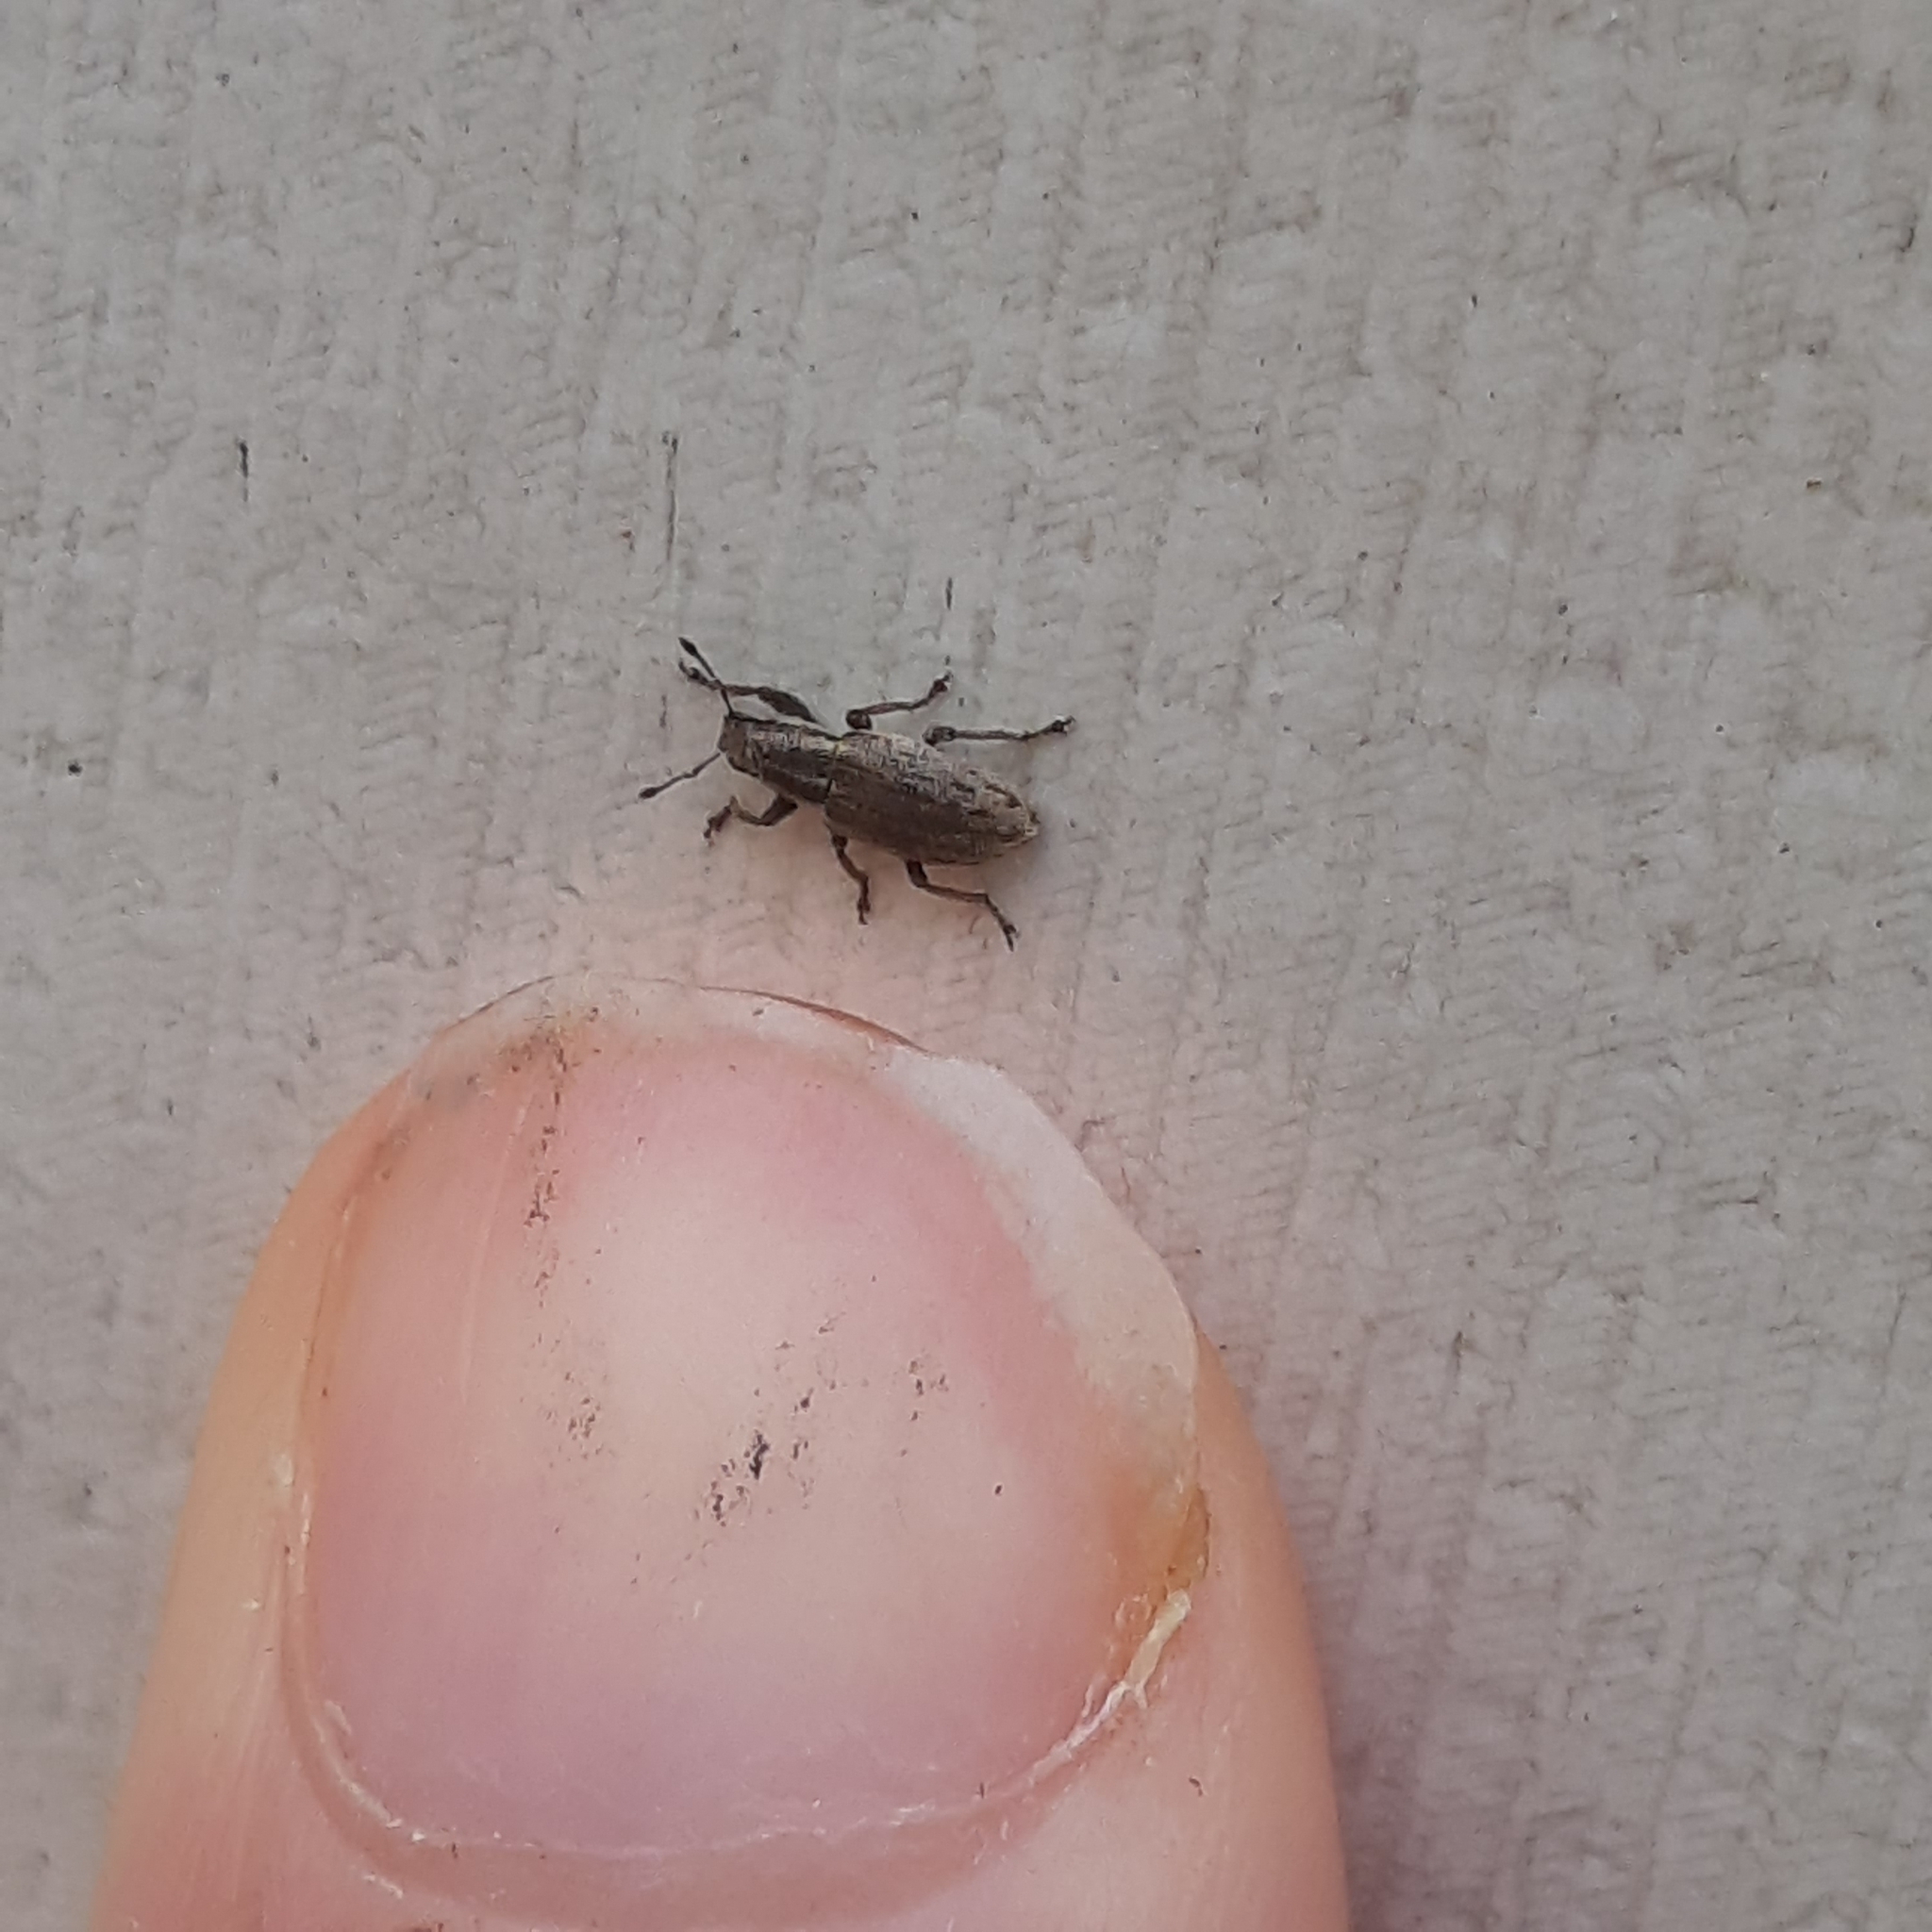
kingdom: Animalia
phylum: Arthropoda
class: Insecta
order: Coleoptera
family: Curculionidae
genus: Sitona
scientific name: Sitona humeralis
